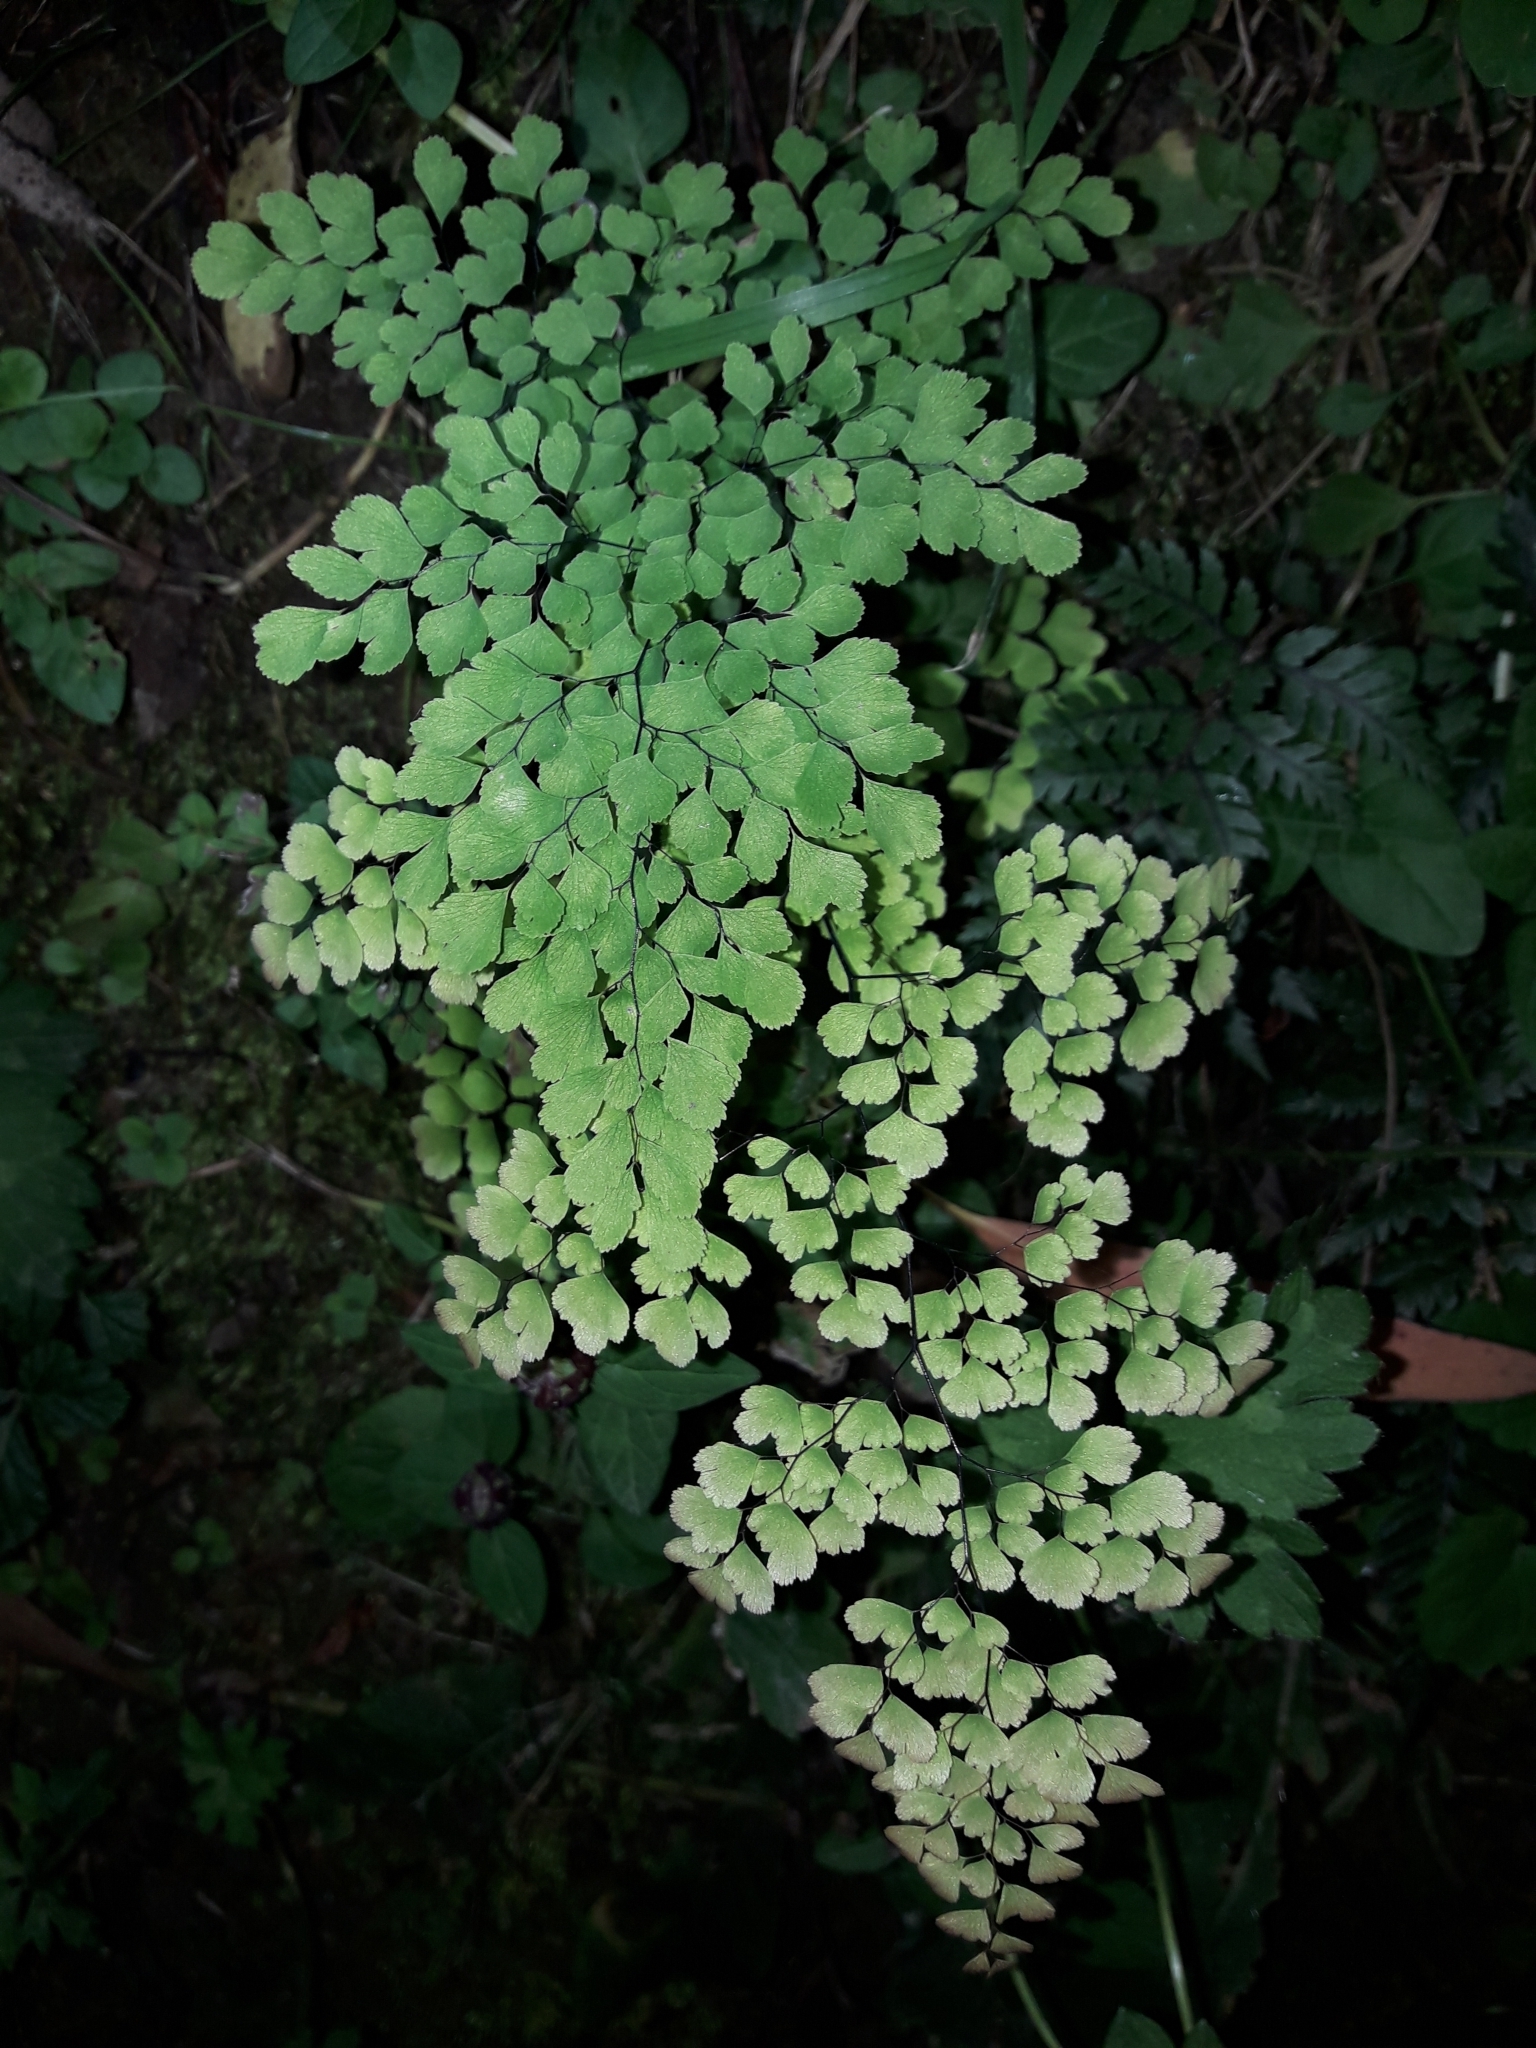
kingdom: Plantae
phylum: Tracheophyta
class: Polypodiopsida
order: Polypodiales
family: Pteridaceae
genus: Adiantum
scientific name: Adiantum raddianum
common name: Delta maidenhair fern
